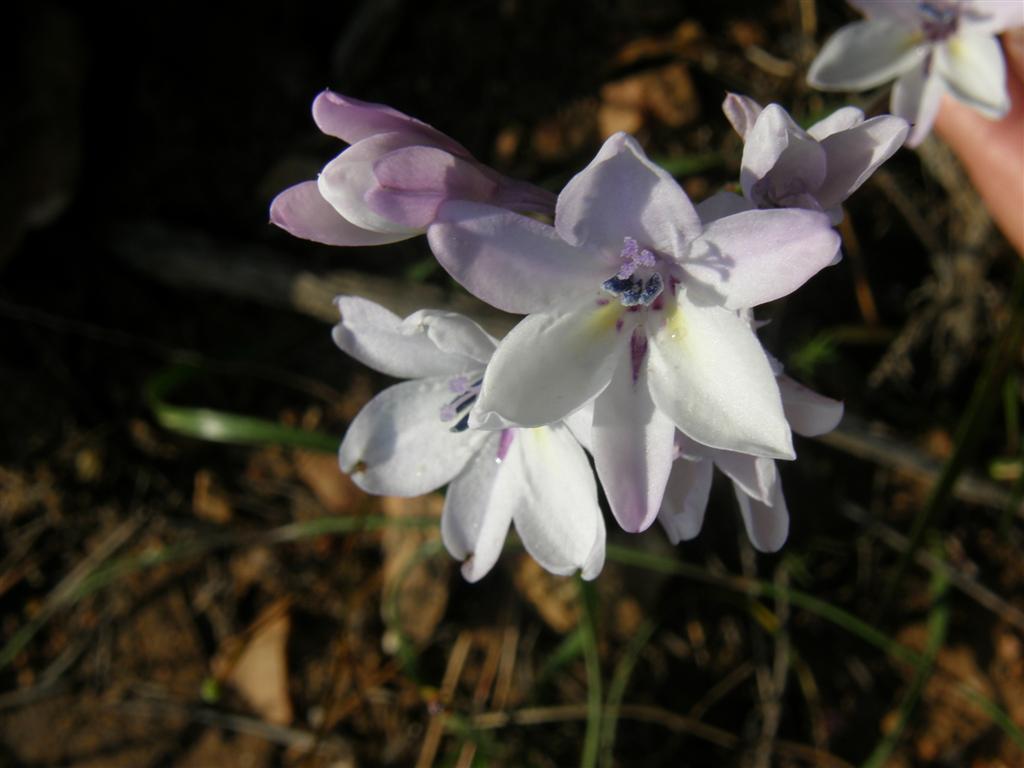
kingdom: Plantae
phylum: Tracheophyta
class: Liliopsida
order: Asparagales
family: Iridaceae
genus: Babiana
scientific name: Babiana nervosa
